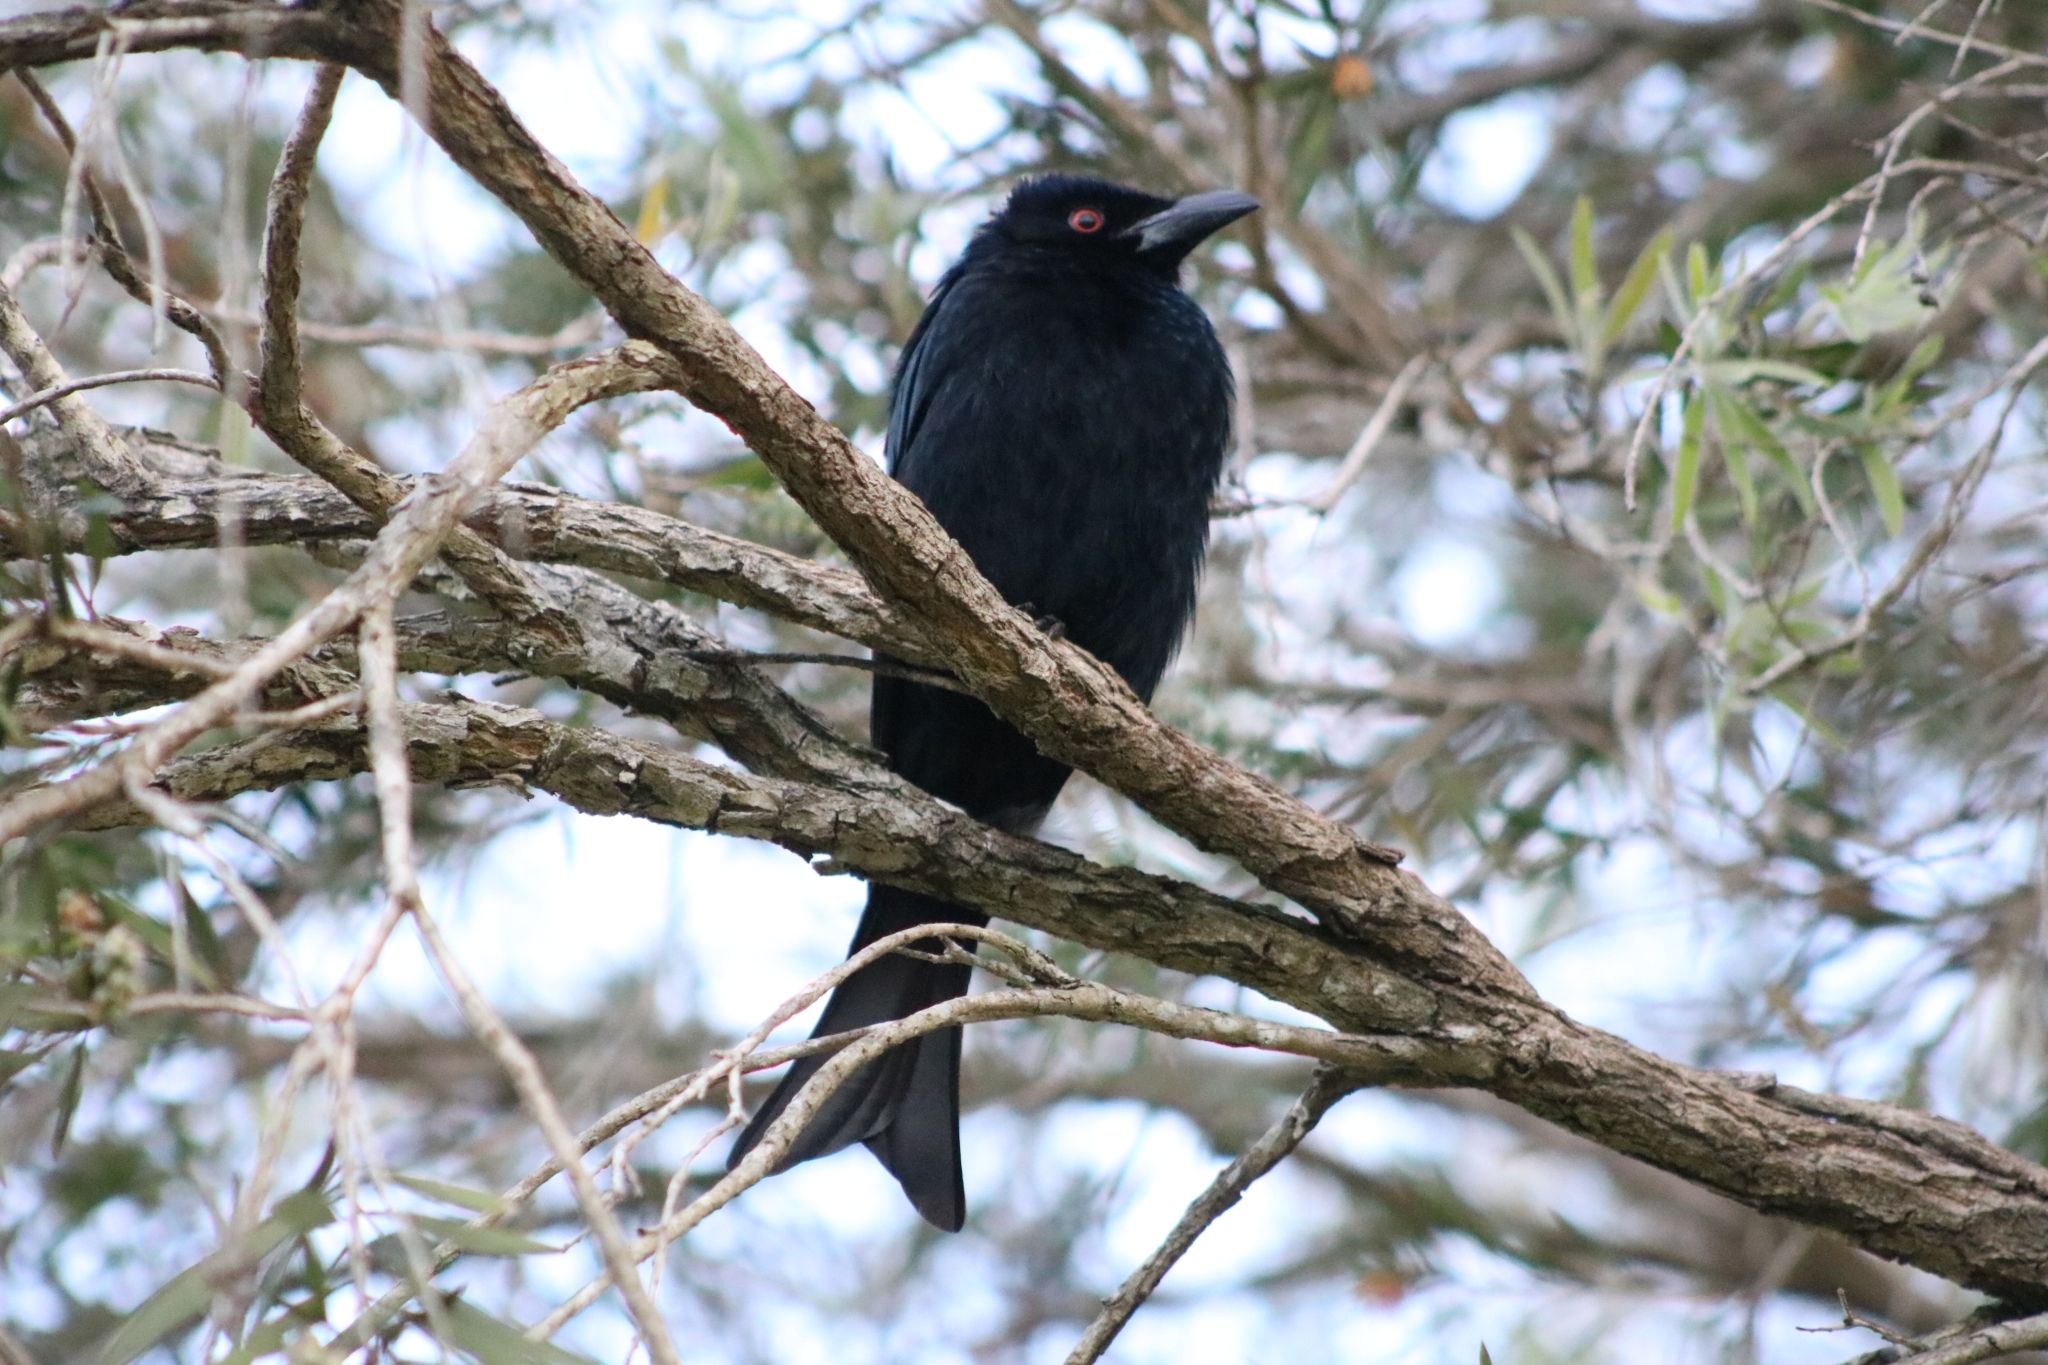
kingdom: Animalia
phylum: Chordata
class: Aves
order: Passeriformes
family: Dicruridae
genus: Dicrurus
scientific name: Dicrurus bracteatus
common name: Spangled drongo
